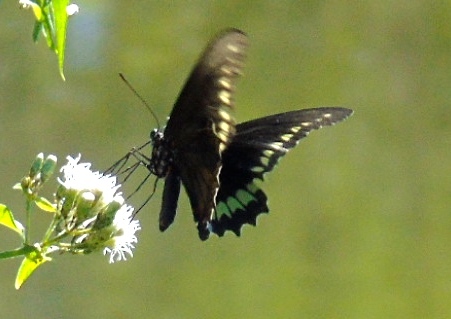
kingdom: Animalia
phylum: Arthropoda
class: Insecta
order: Lepidoptera
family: Papilionidae
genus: Battus
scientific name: Battus polydamas
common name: Polydamas swallowtail
